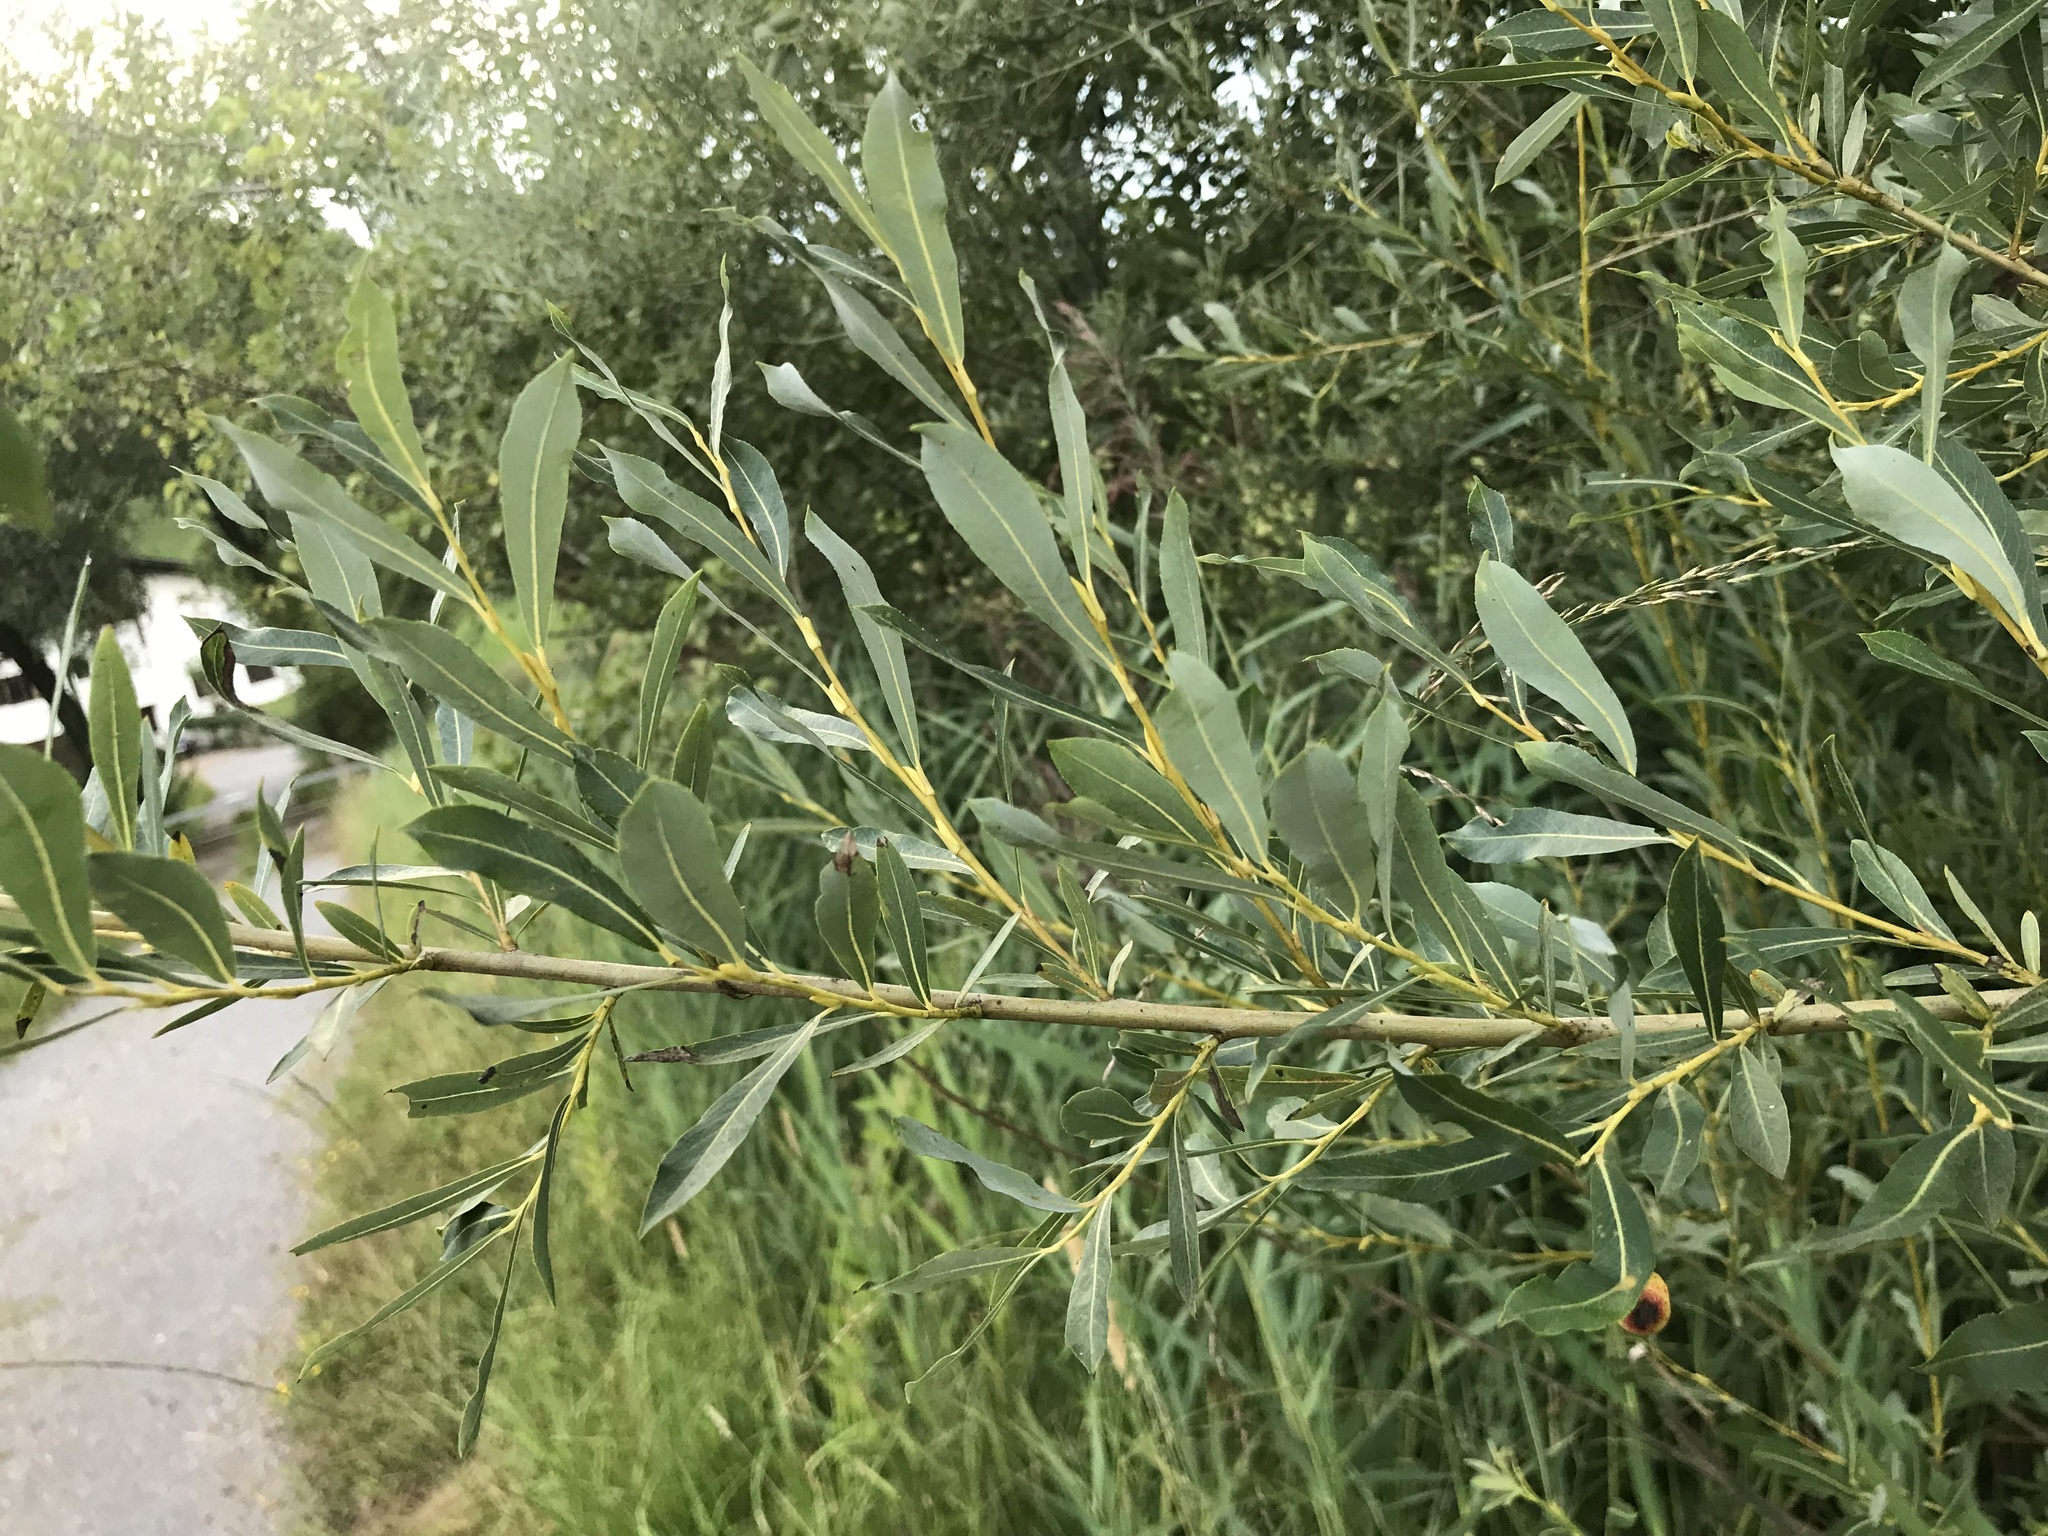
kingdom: Plantae
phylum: Tracheophyta
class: Magnoliopsida
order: Malpighiales
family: Salicaceae
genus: Salix
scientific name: Salix purpurea
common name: Purple willow
